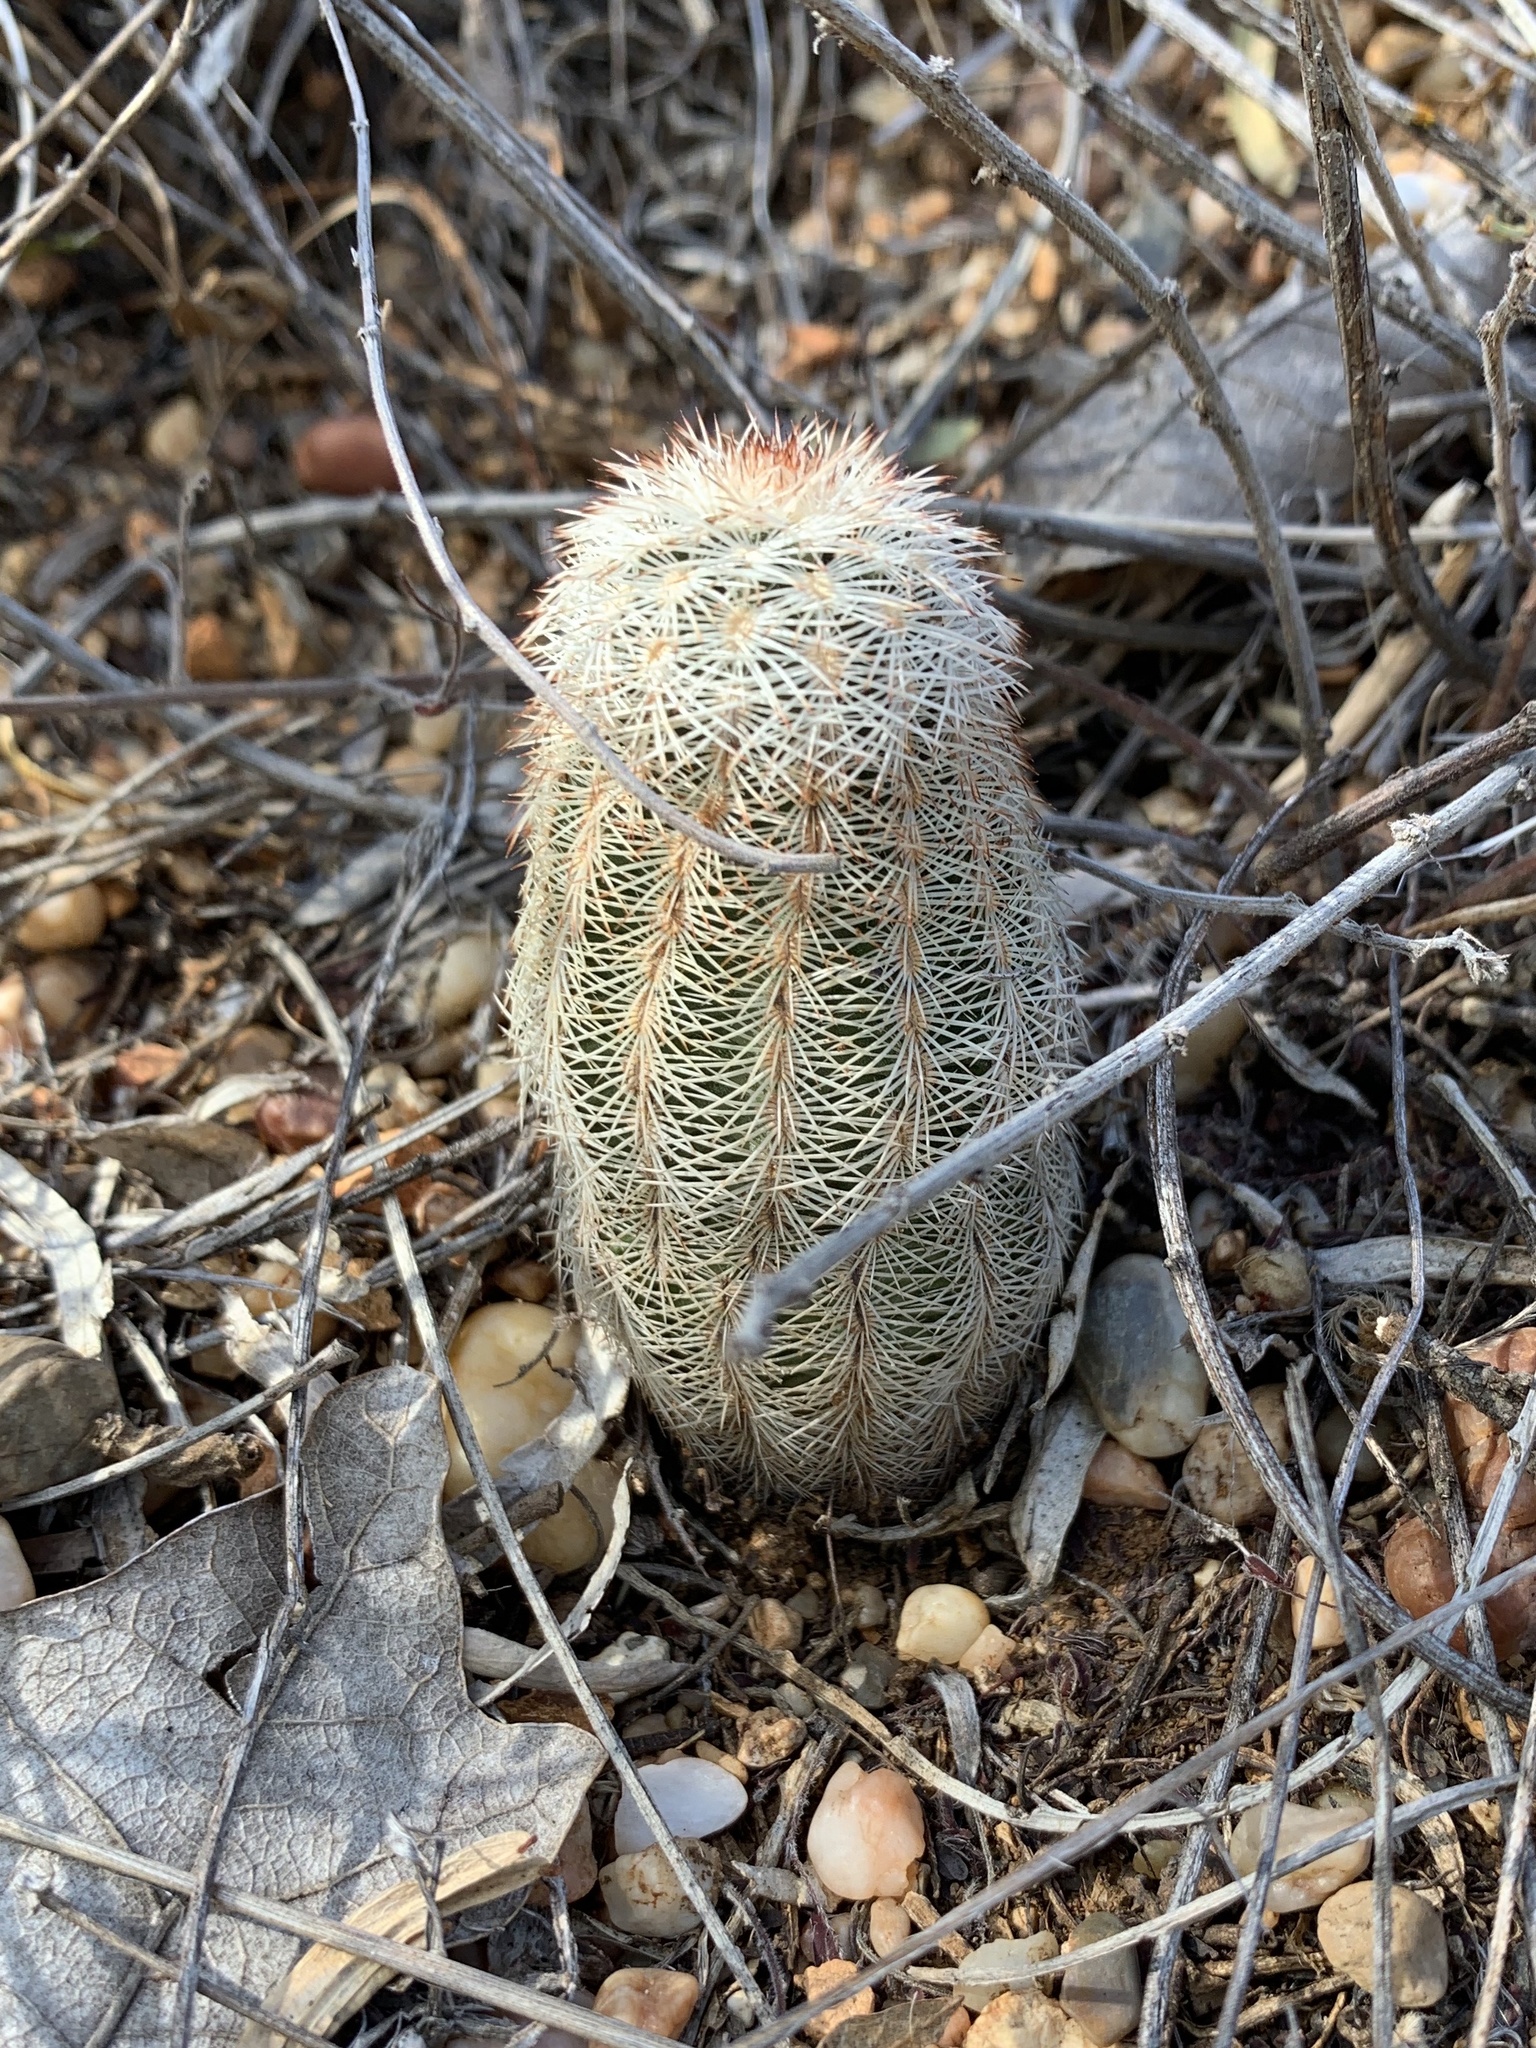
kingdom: Plantae
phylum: Tracheophyta
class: Magnoliopsida
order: Caryophyllales
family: Cactaceae
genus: Echinocereus
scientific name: Echinocereus reichenbachii
